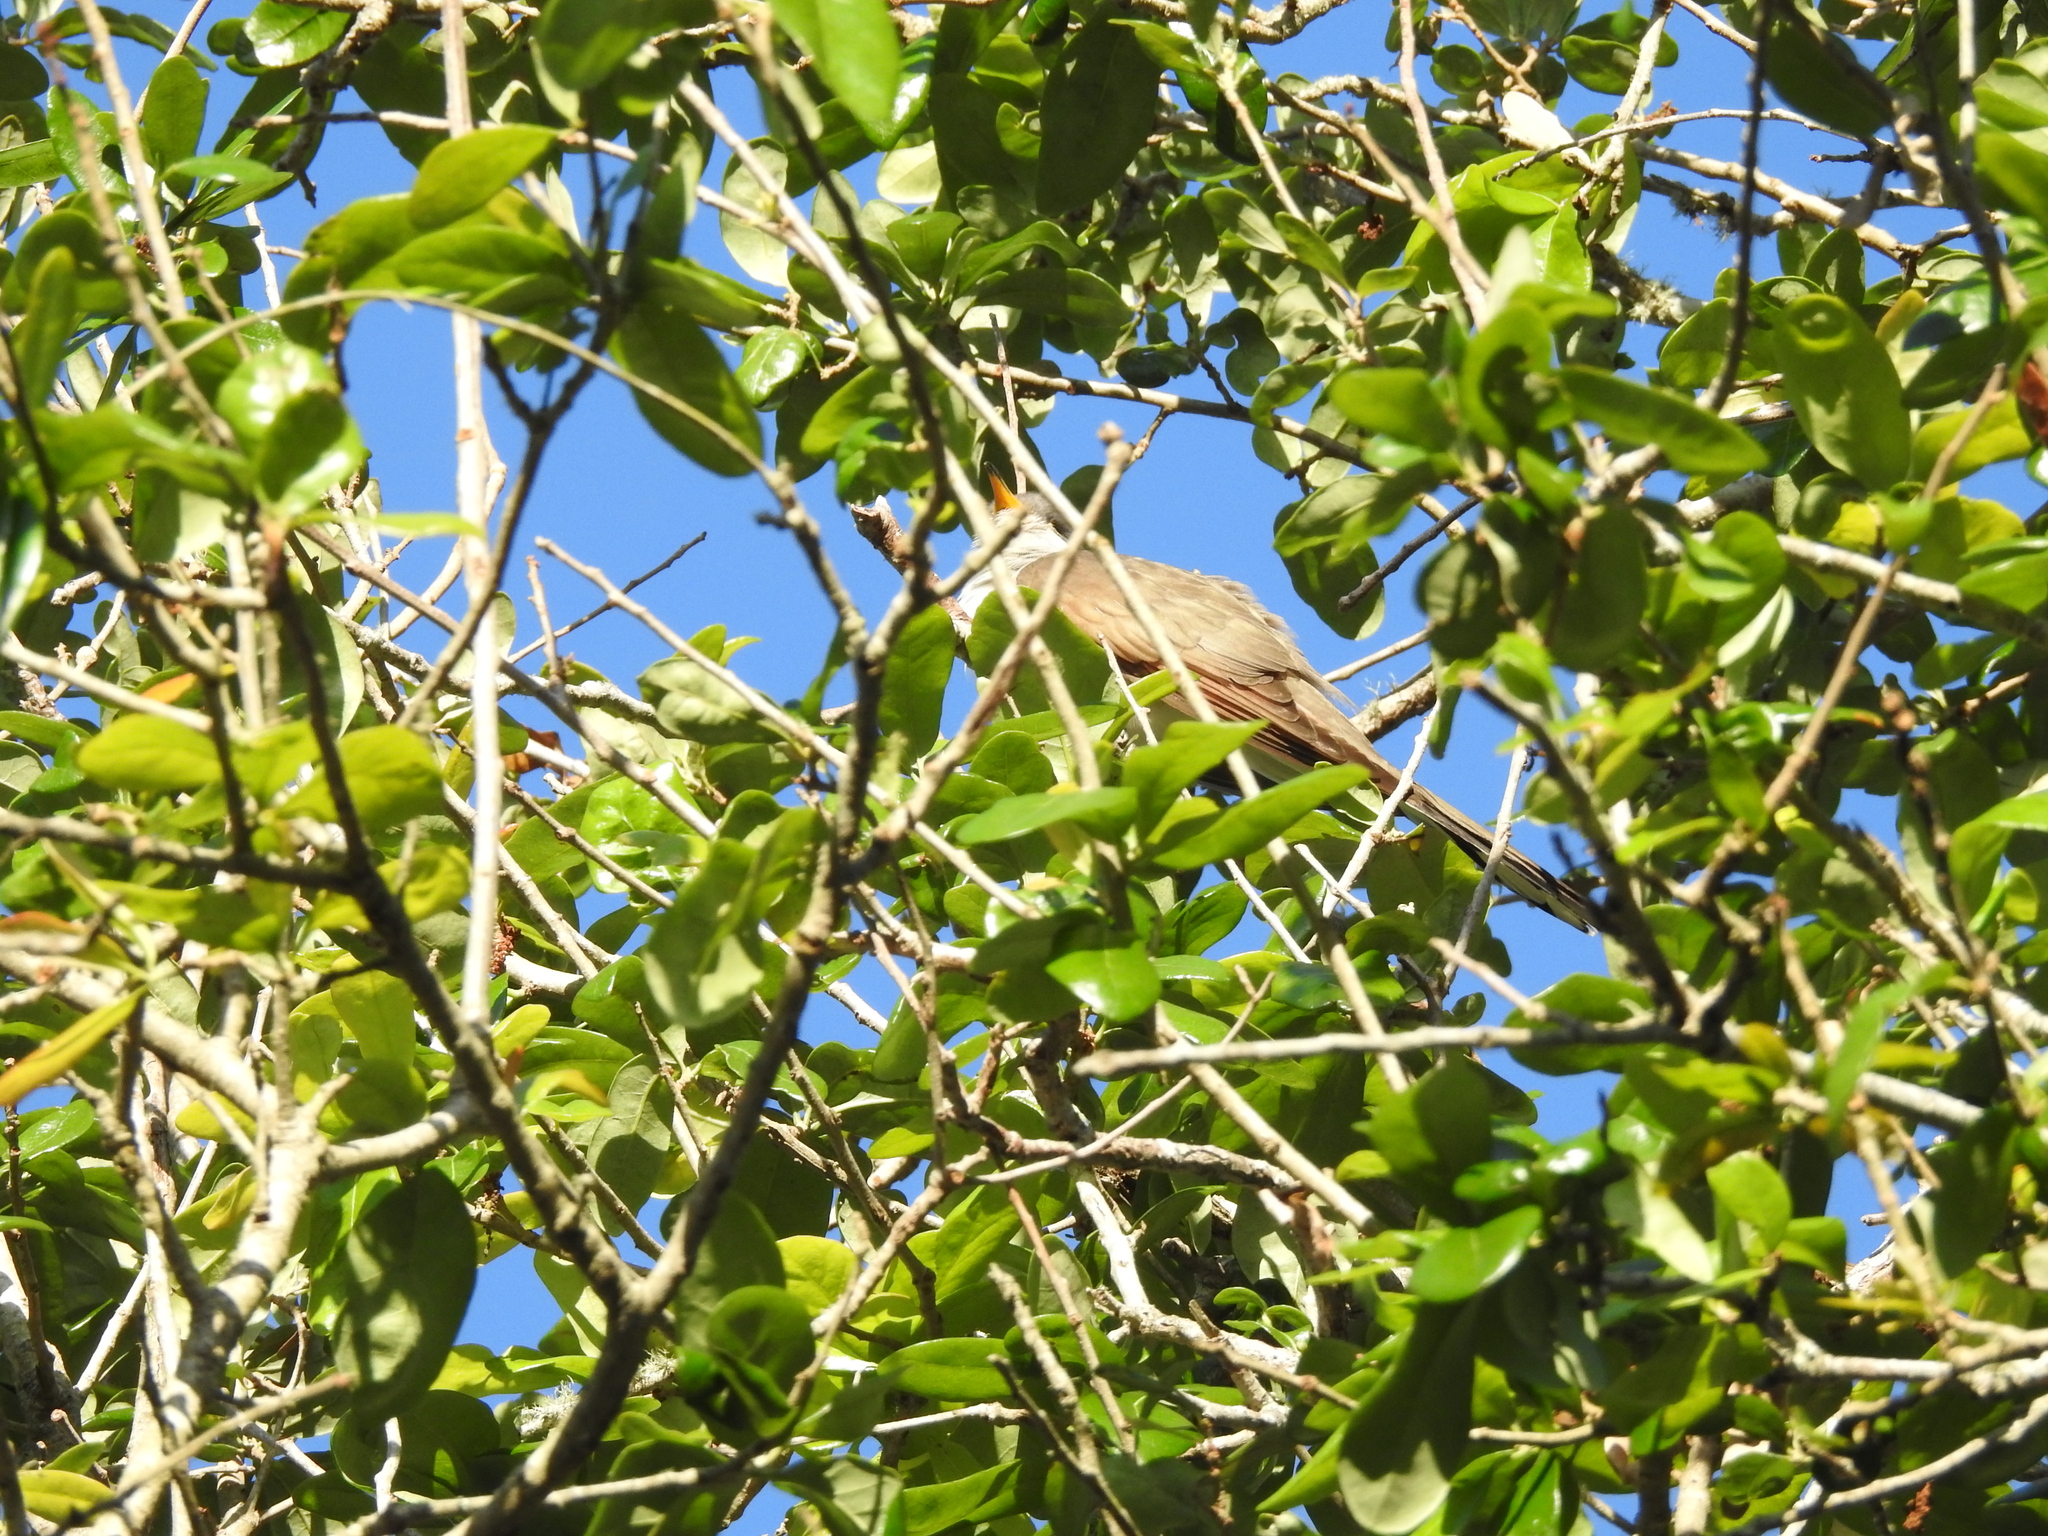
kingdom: Animalia
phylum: Chordata
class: Aves
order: Cuculiformes
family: Cuculidae
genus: Coccyzus
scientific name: Coccyzus americanus
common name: Yellow-billed cuckoo
